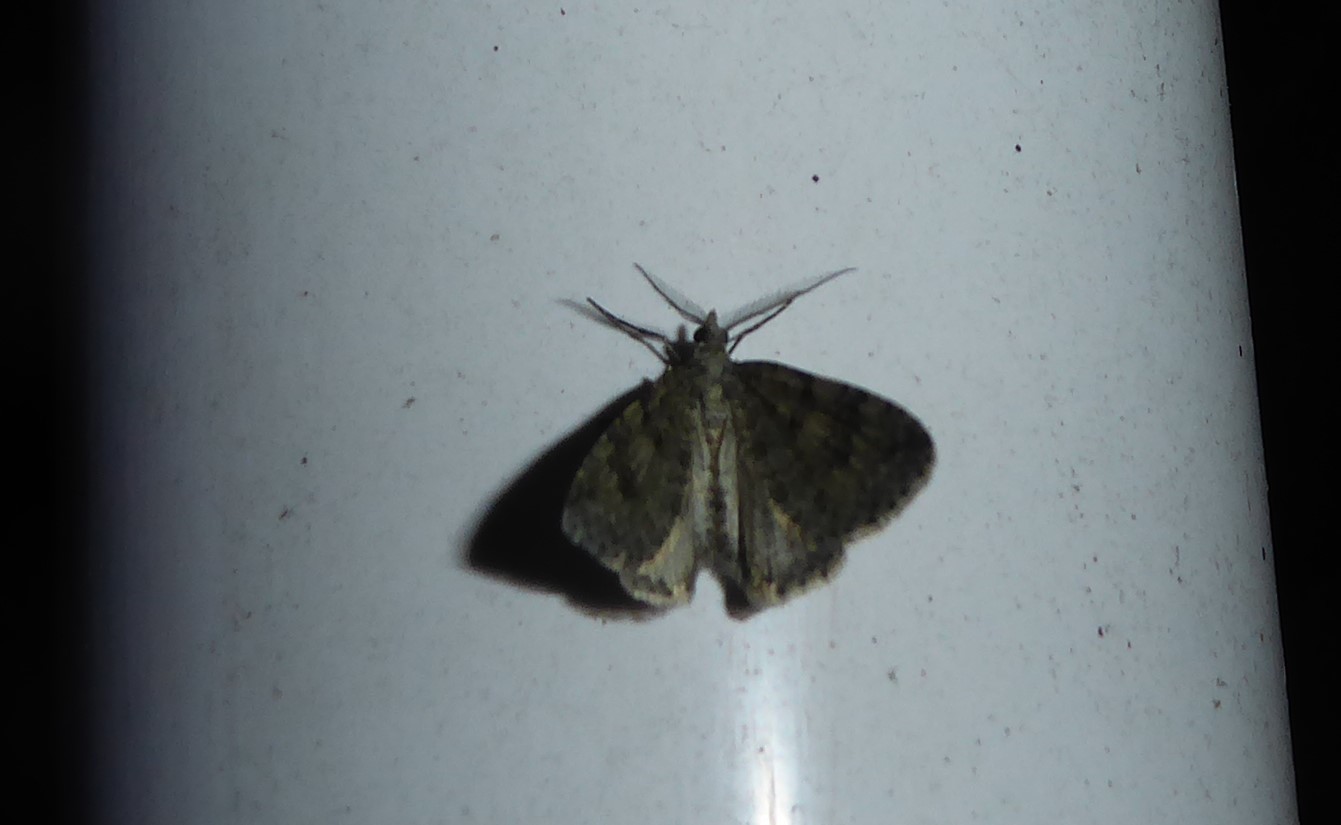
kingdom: Animalia
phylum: Arthropoda
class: Insecta
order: Lepidoptera
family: Geometridae
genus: Helastia
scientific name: Helastia corcularia
